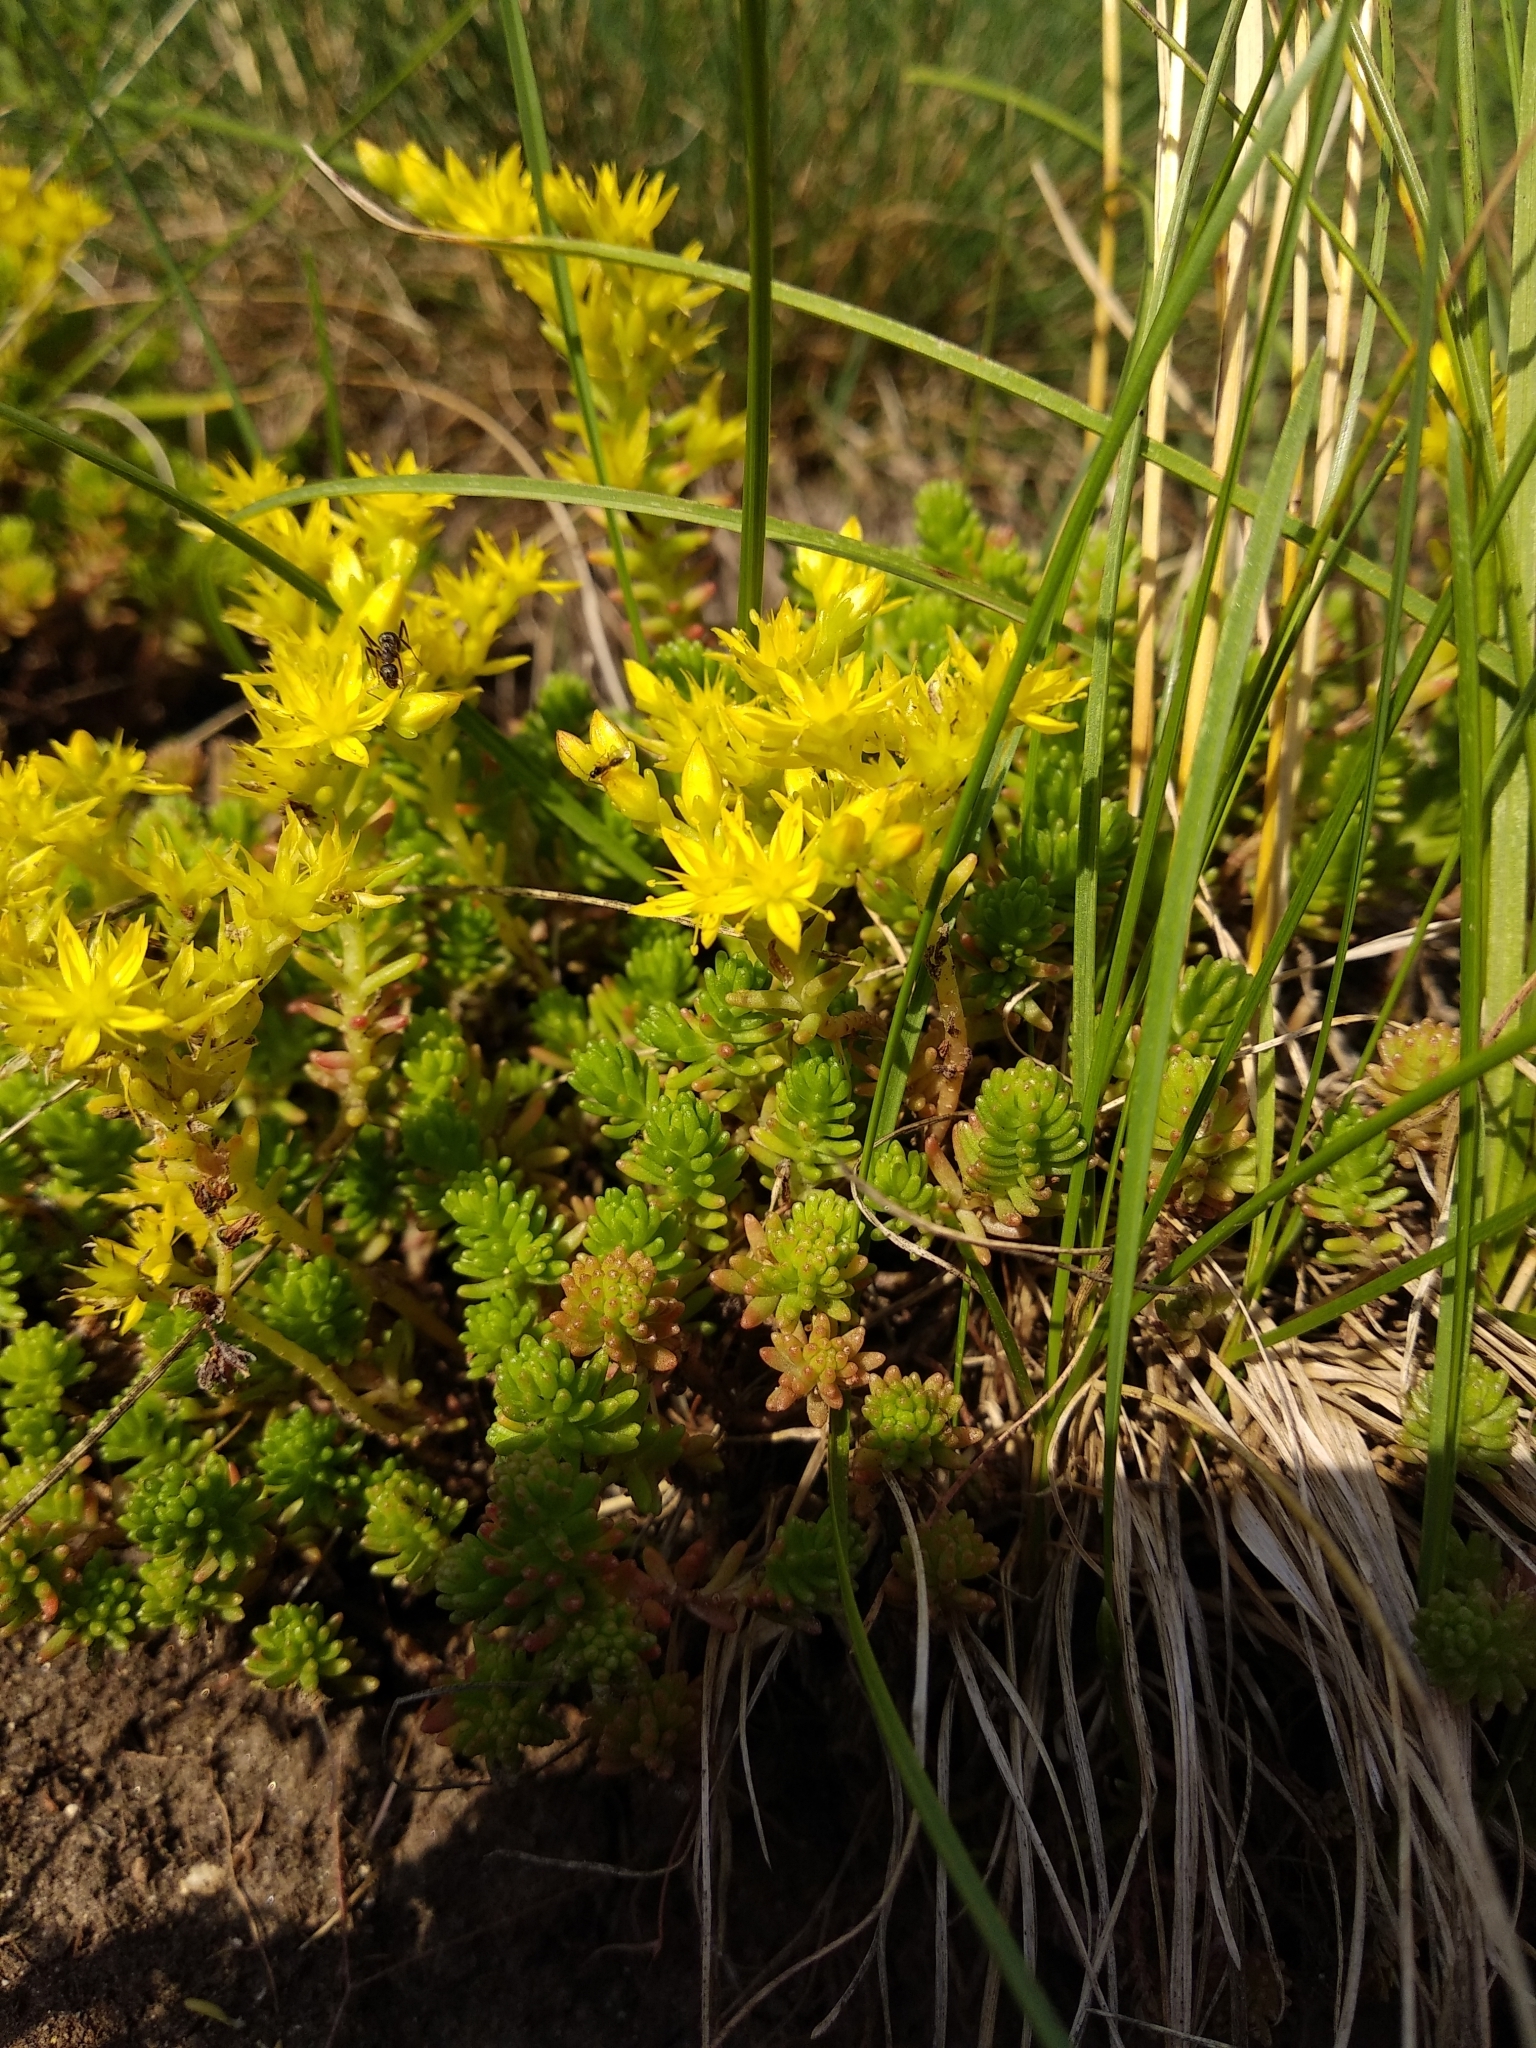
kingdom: Plantae
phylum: Tracheophyta
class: Magnoliopsida
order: Saxifragales
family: Crassulaceae
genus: Sedum
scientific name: Sedum sexangulare
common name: Tasteless stonecrop
